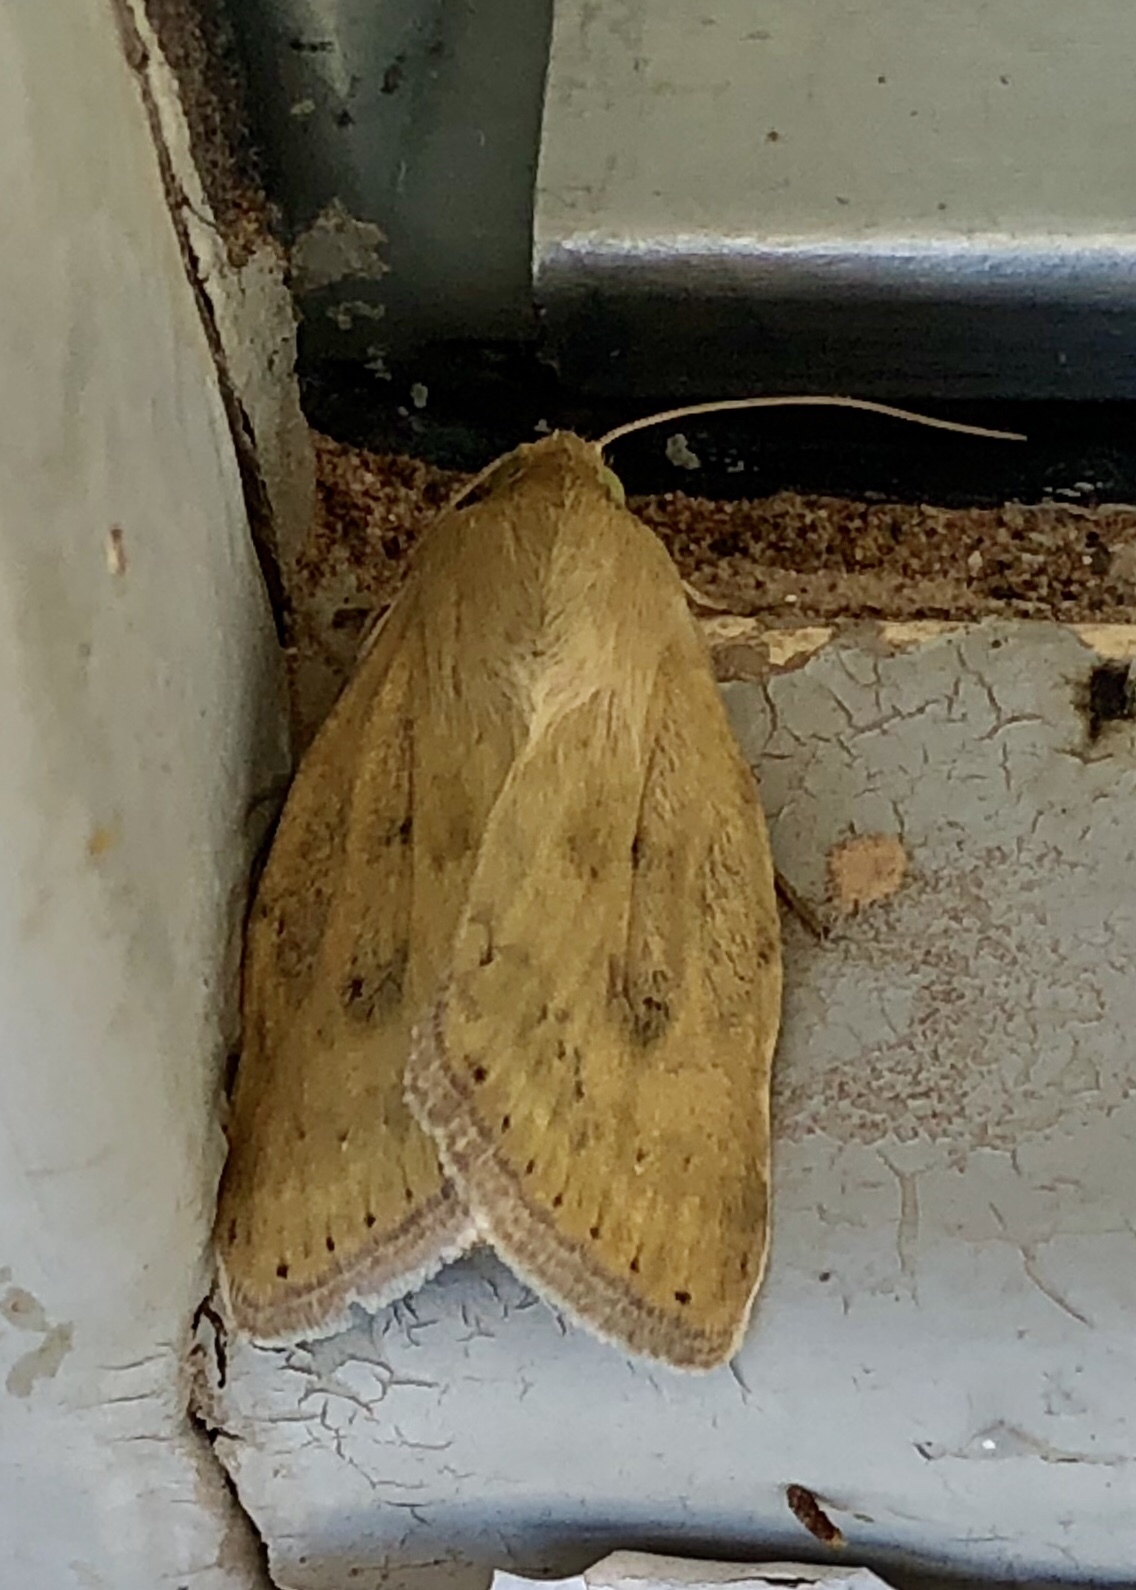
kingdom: Animalia
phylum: Arthropoda
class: Insecta
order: Lepidoptera
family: Noctuidae
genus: Heliocheilus
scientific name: Heliocheilus paradoxus
